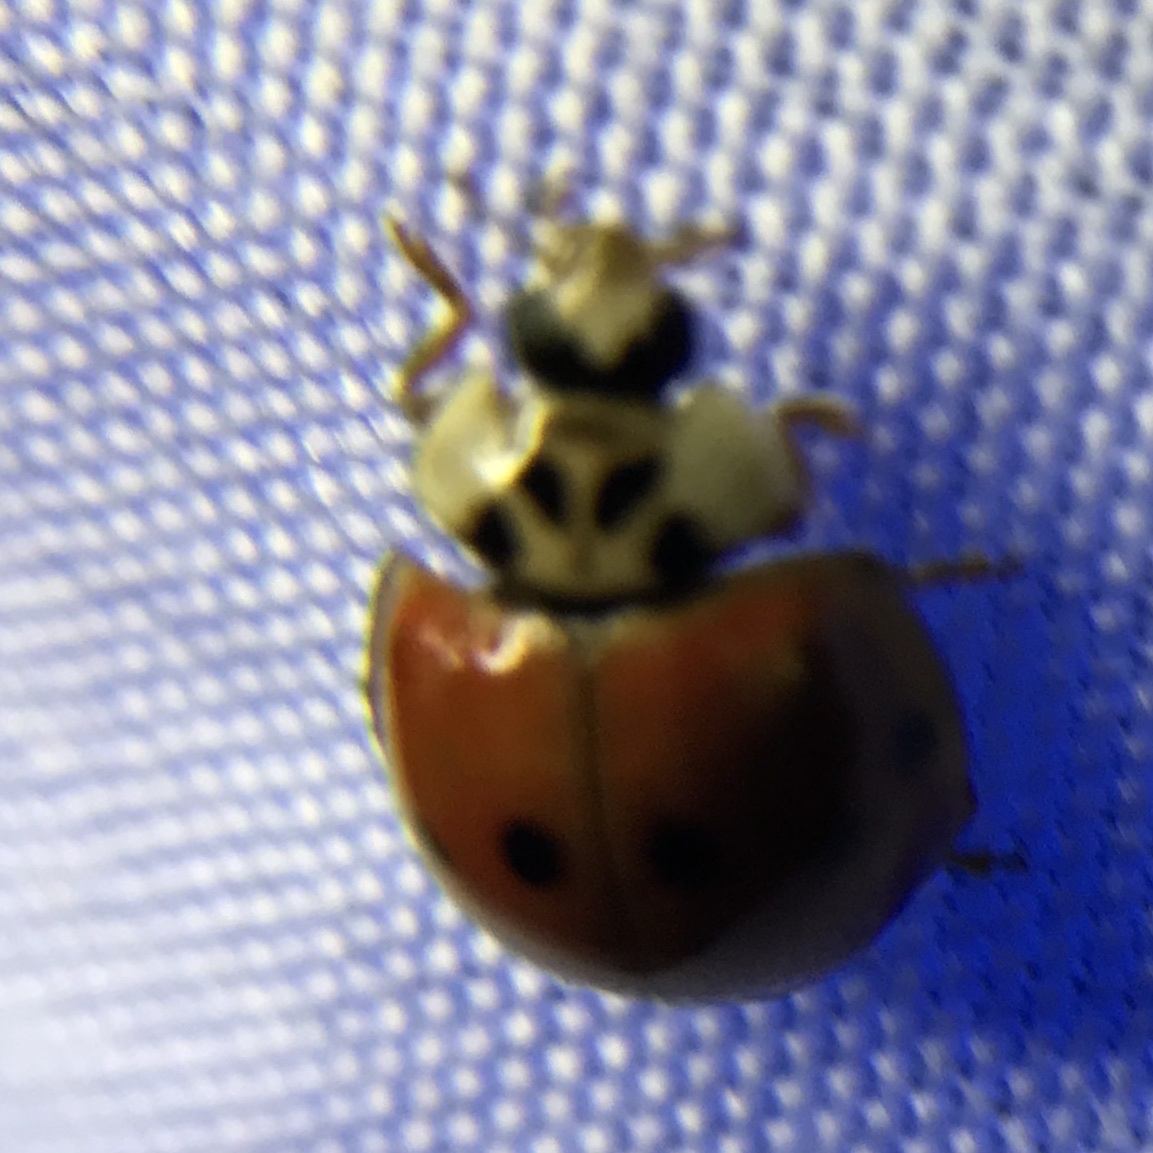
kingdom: Animalia
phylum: Arthropoda
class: Insecta
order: Coleoptera
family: Coccinellidae
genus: Harmonia
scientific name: Harmonia axyridis
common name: Harlequin ladybird
